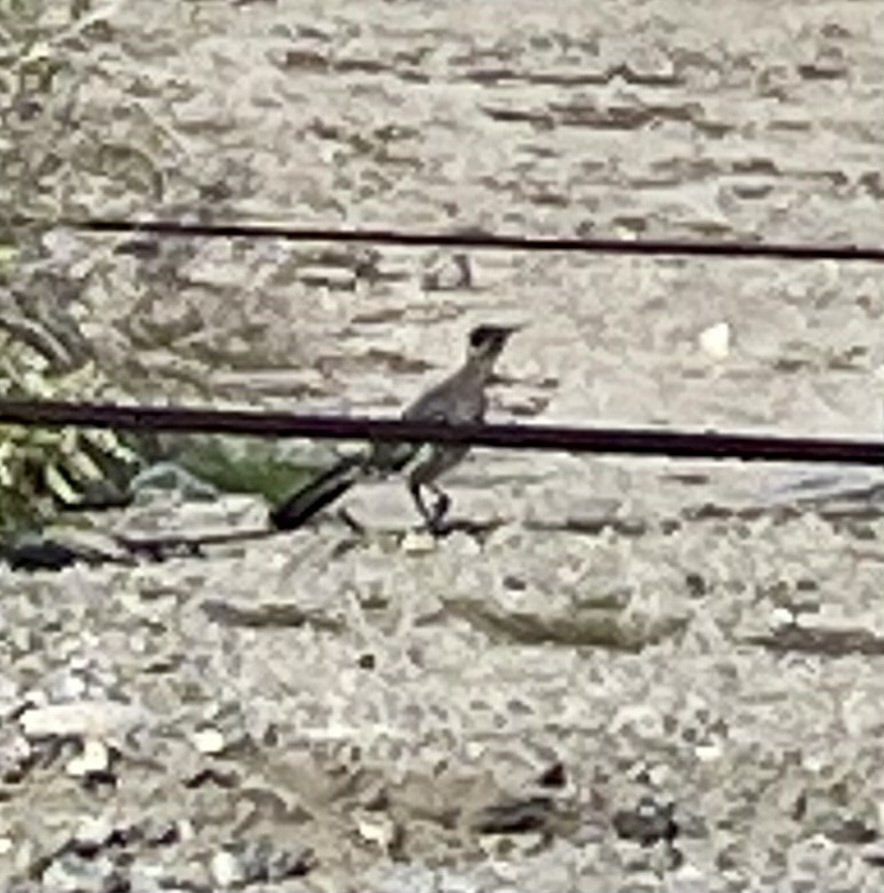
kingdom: Animalia
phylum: Chordata
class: Aves
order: Cuculiformes
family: Cuculidae
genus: Geococcyx
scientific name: Geococcyx californianus
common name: Greater roadrunner
